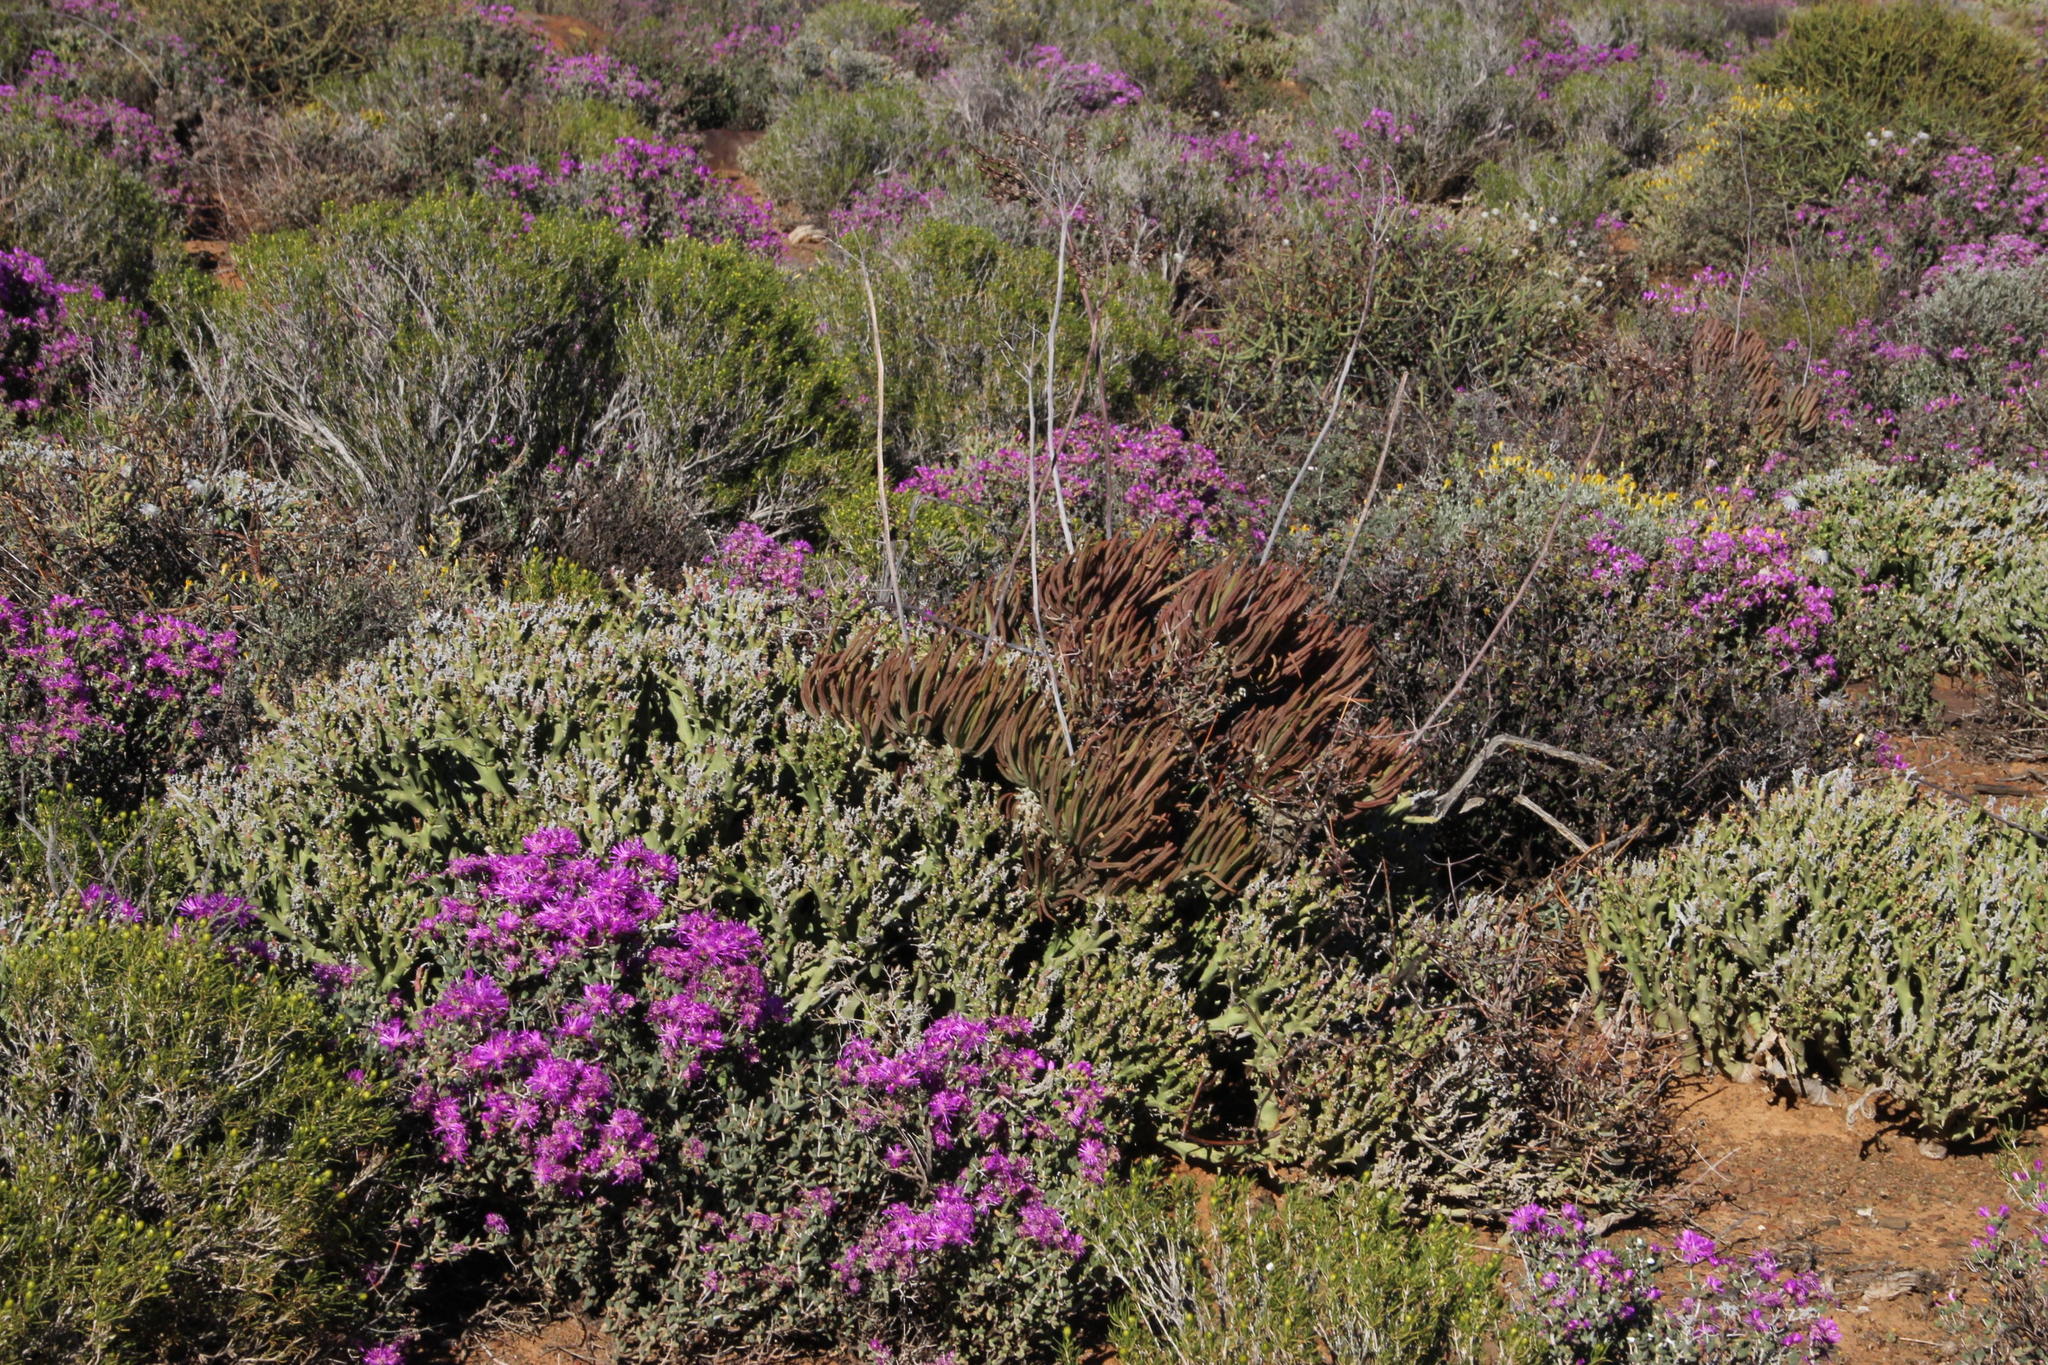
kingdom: Plantae
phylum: Tracheophyta
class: Magnoliopsida
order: Saxifragales
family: Crassulaceae
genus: Tylecodon
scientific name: Tylecodon wallichii
